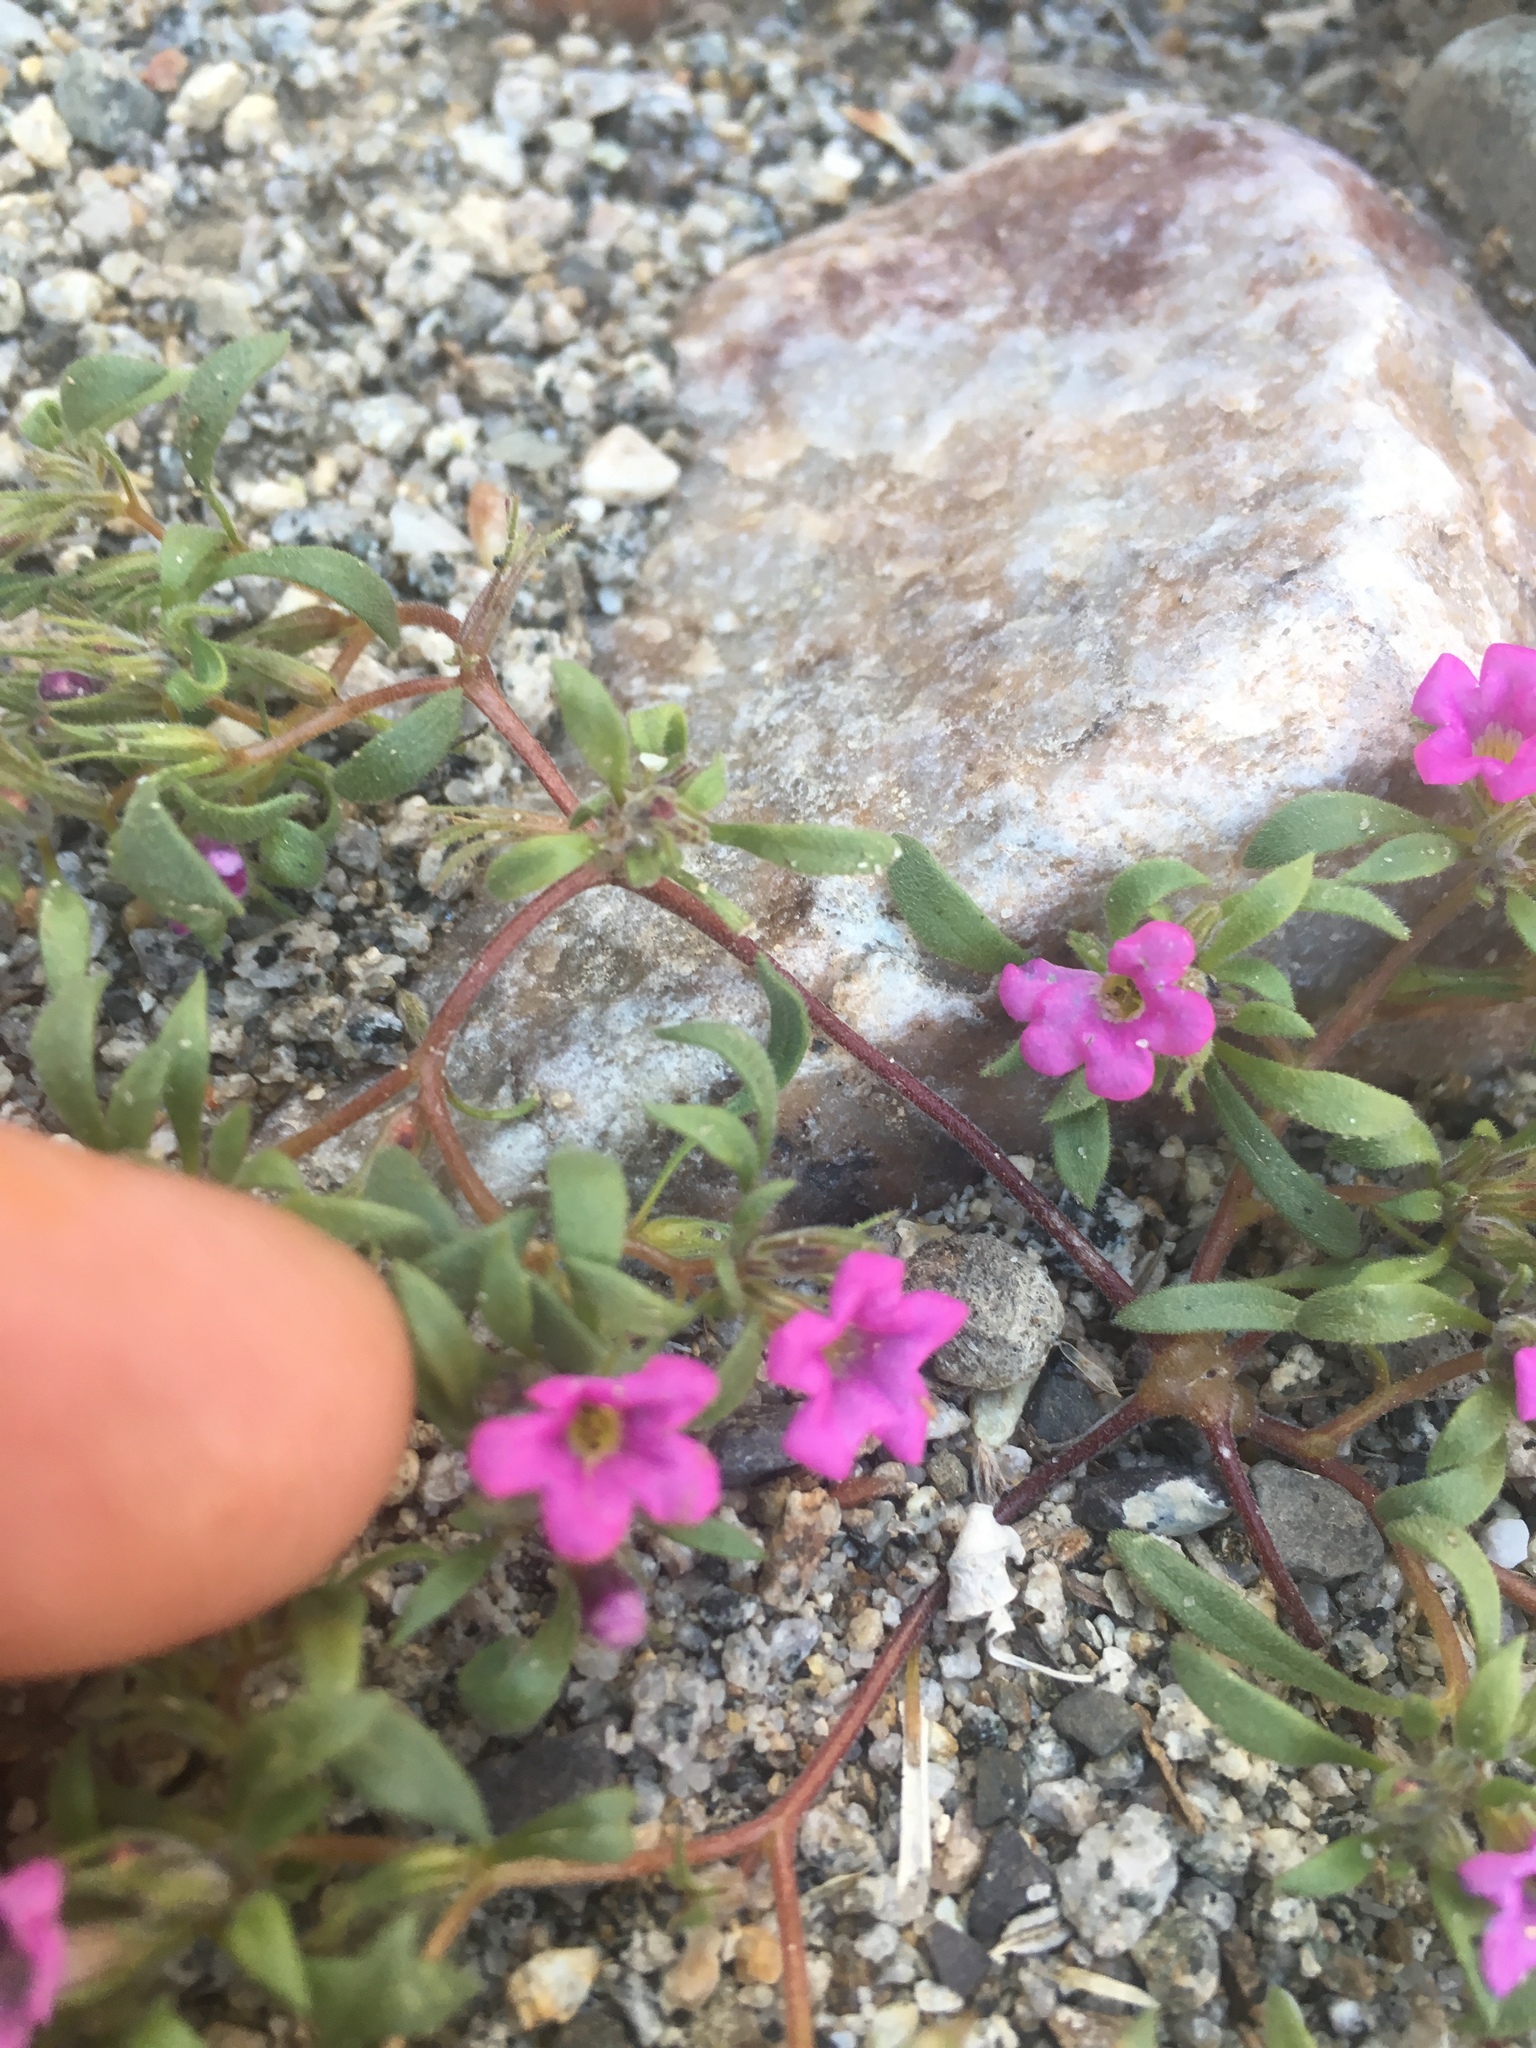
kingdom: Plantae
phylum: Tracheophyta
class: Magnoliopsida
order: Boraginales
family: Namaceae
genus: Nama
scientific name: Nama demissa
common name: Leafy nama
